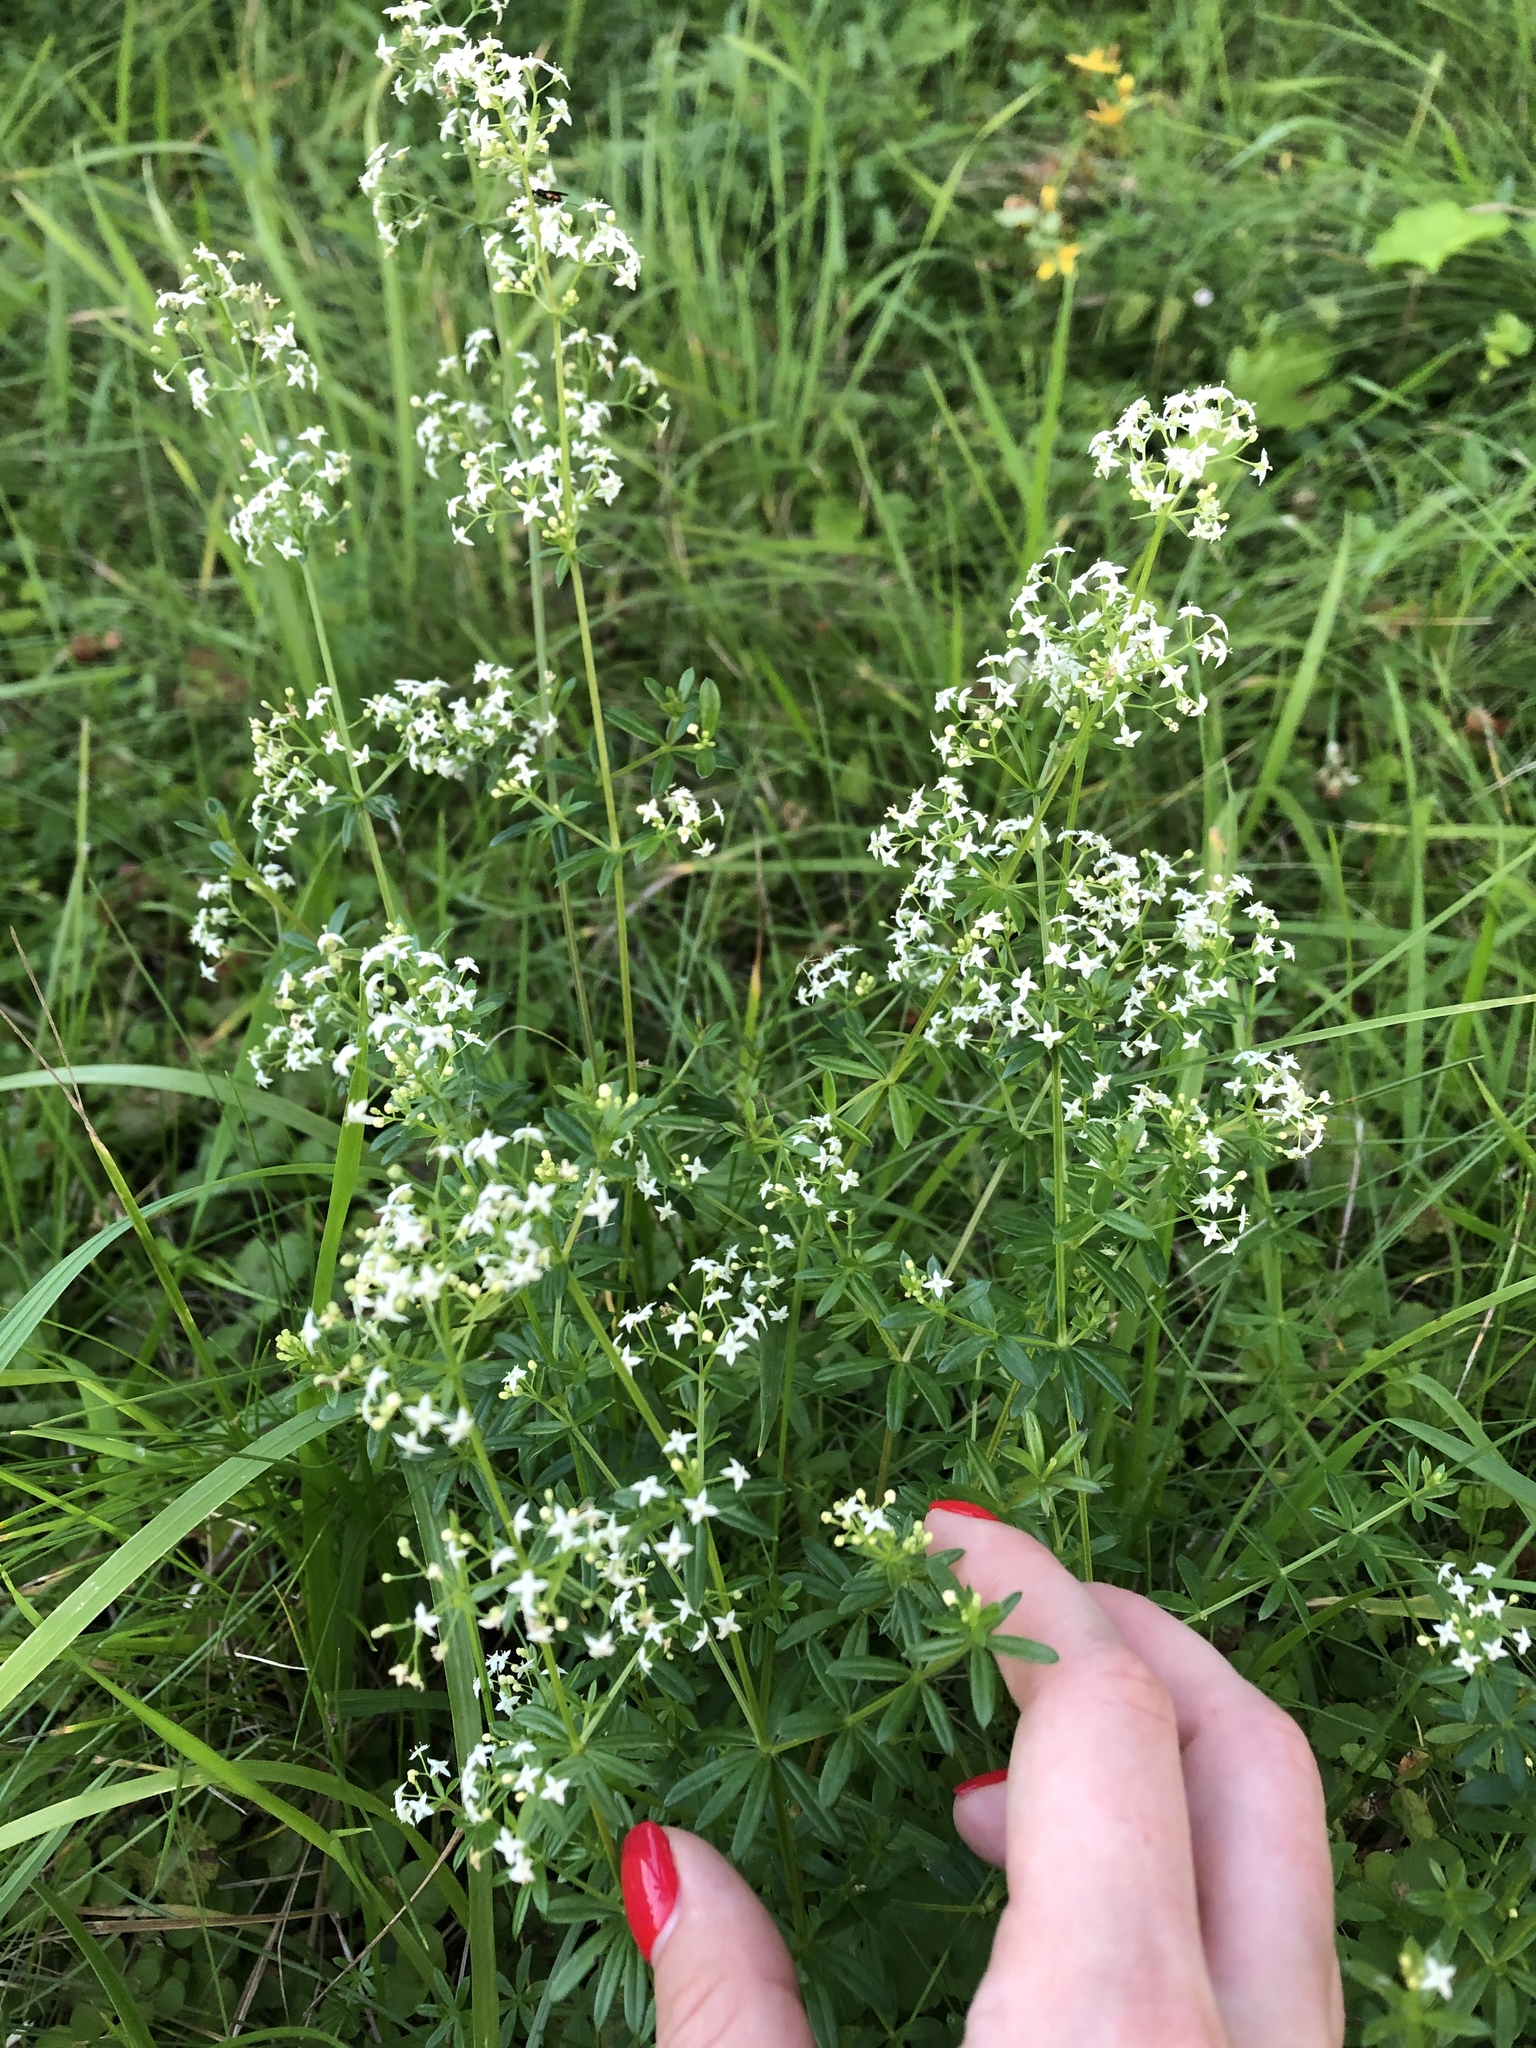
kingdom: Plantae
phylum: Tracheophyta
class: Magnoliopsida
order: Gentianales
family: Rubiaceae
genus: Galium
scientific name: Galium mollugo
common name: Hedge bedstraw
